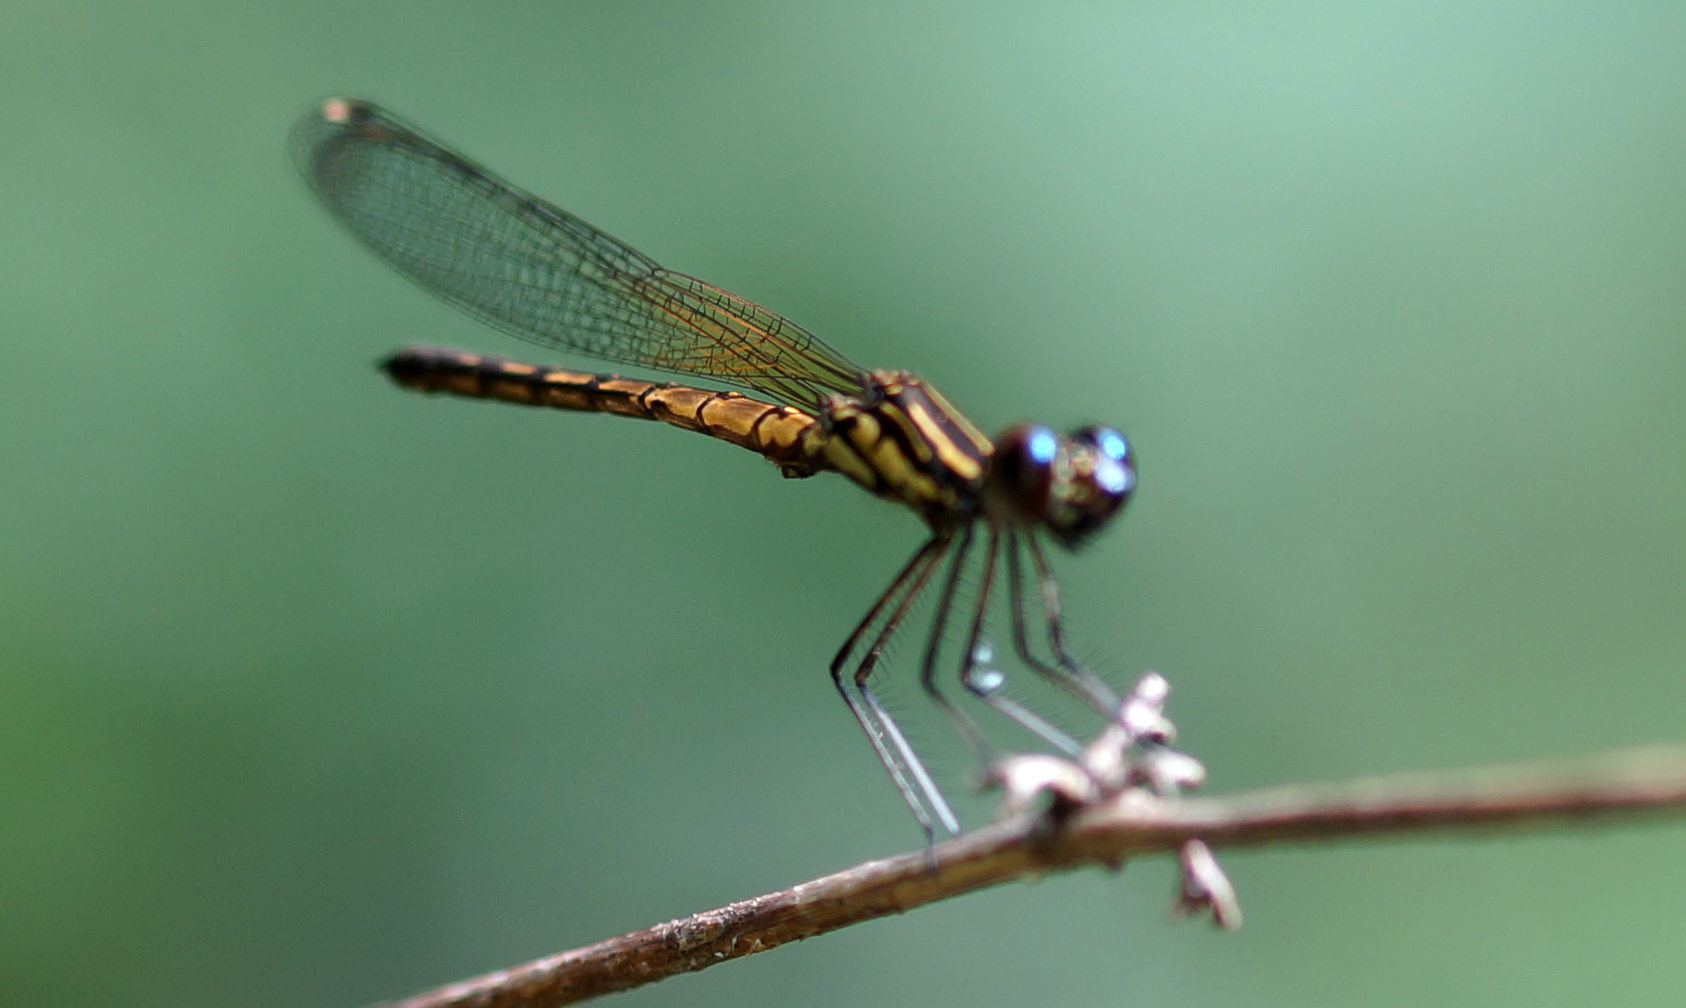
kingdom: Animalia
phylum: Arthropoda
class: Insecta
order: Odonata
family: Chlorocyphidae
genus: Libellago
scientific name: Libellago lineata
